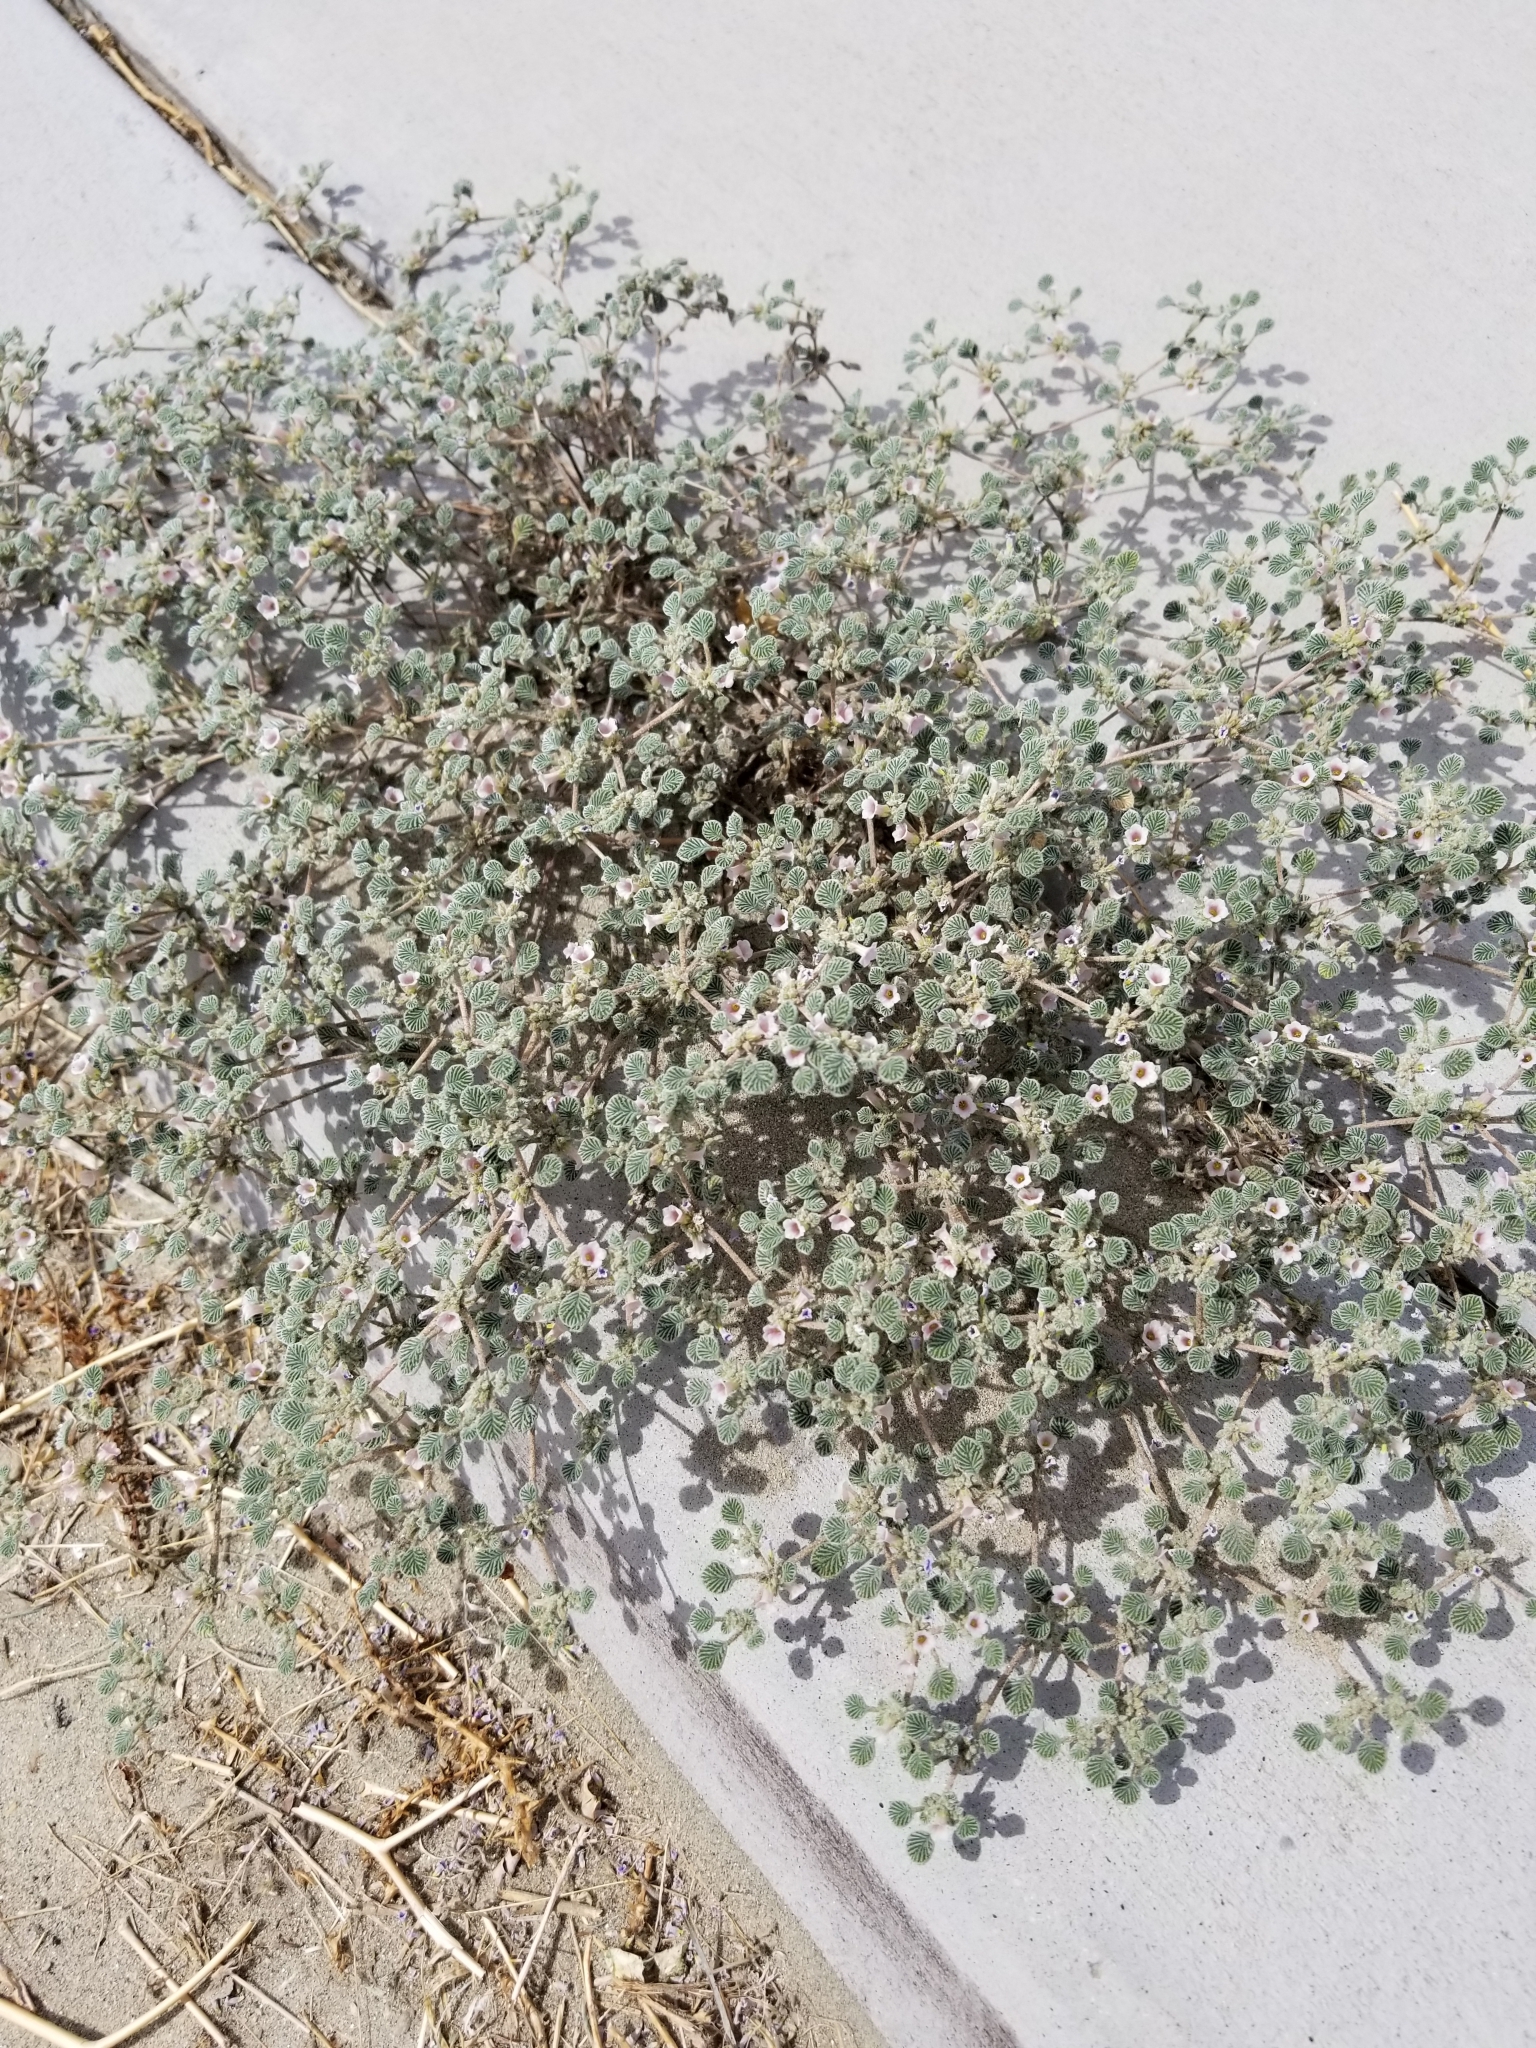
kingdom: Plantae
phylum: Tracheophyta
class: Magnoliopsida
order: Boraginales
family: Ehretiaceae
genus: Tiquilia
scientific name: Tiquilia plicata
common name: Fan-leaf tiquilia
